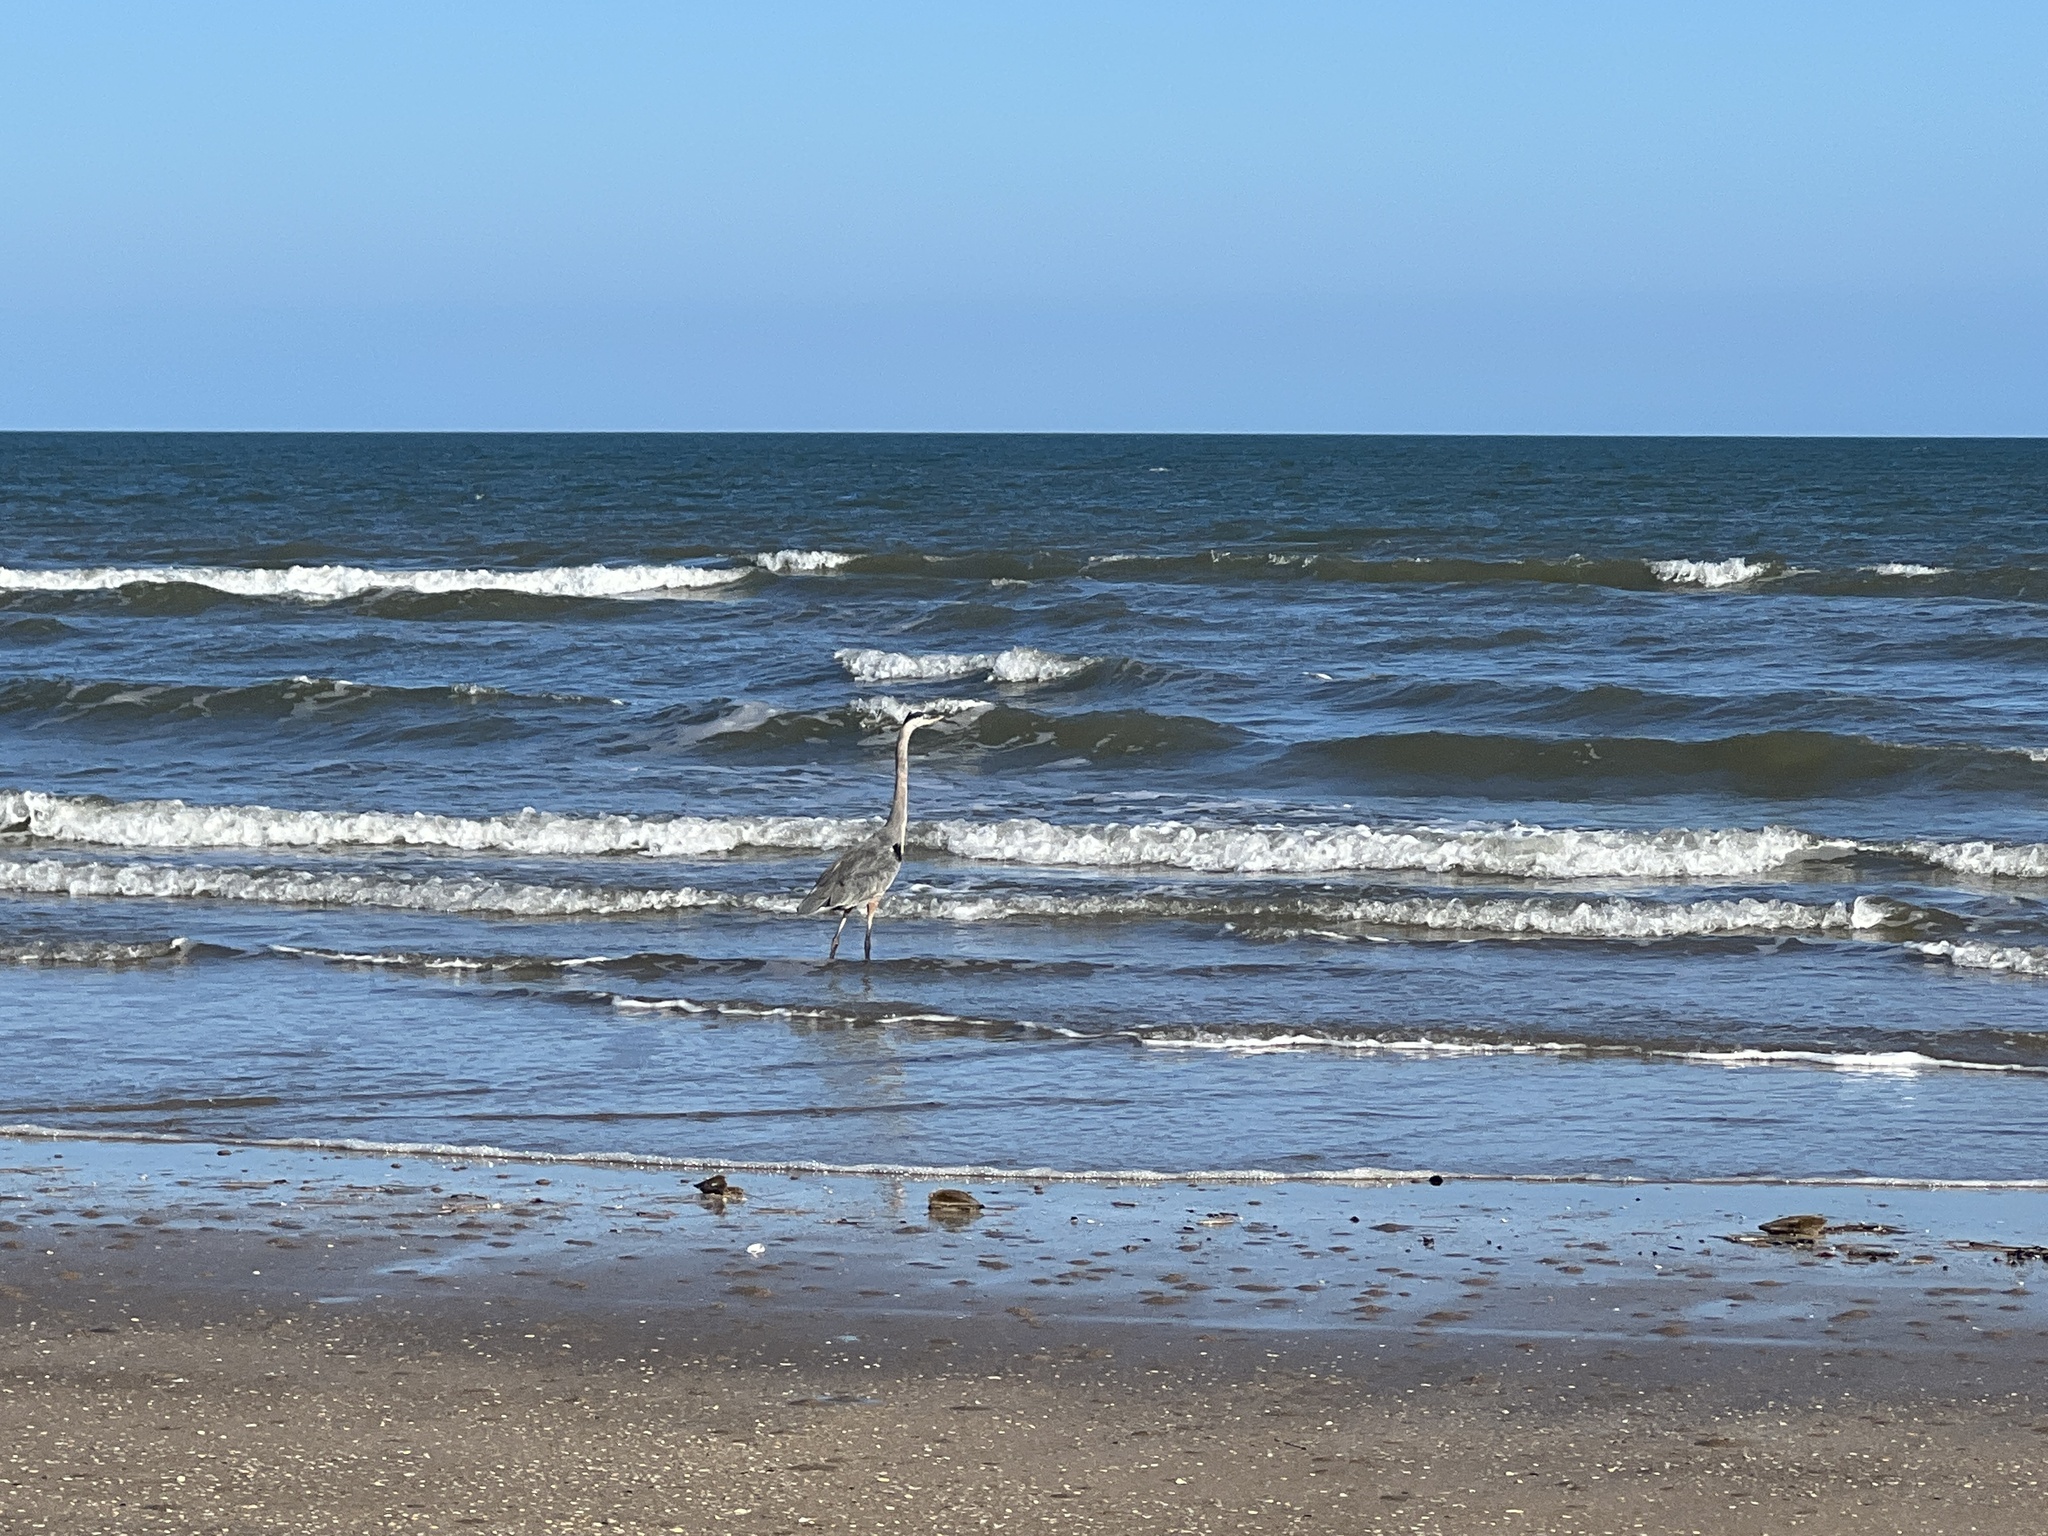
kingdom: Animalia
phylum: Chordata
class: Aves
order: Pelecaniformes
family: Ardeidae
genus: Ardea
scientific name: Ardea herodias
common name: Great blue heron
